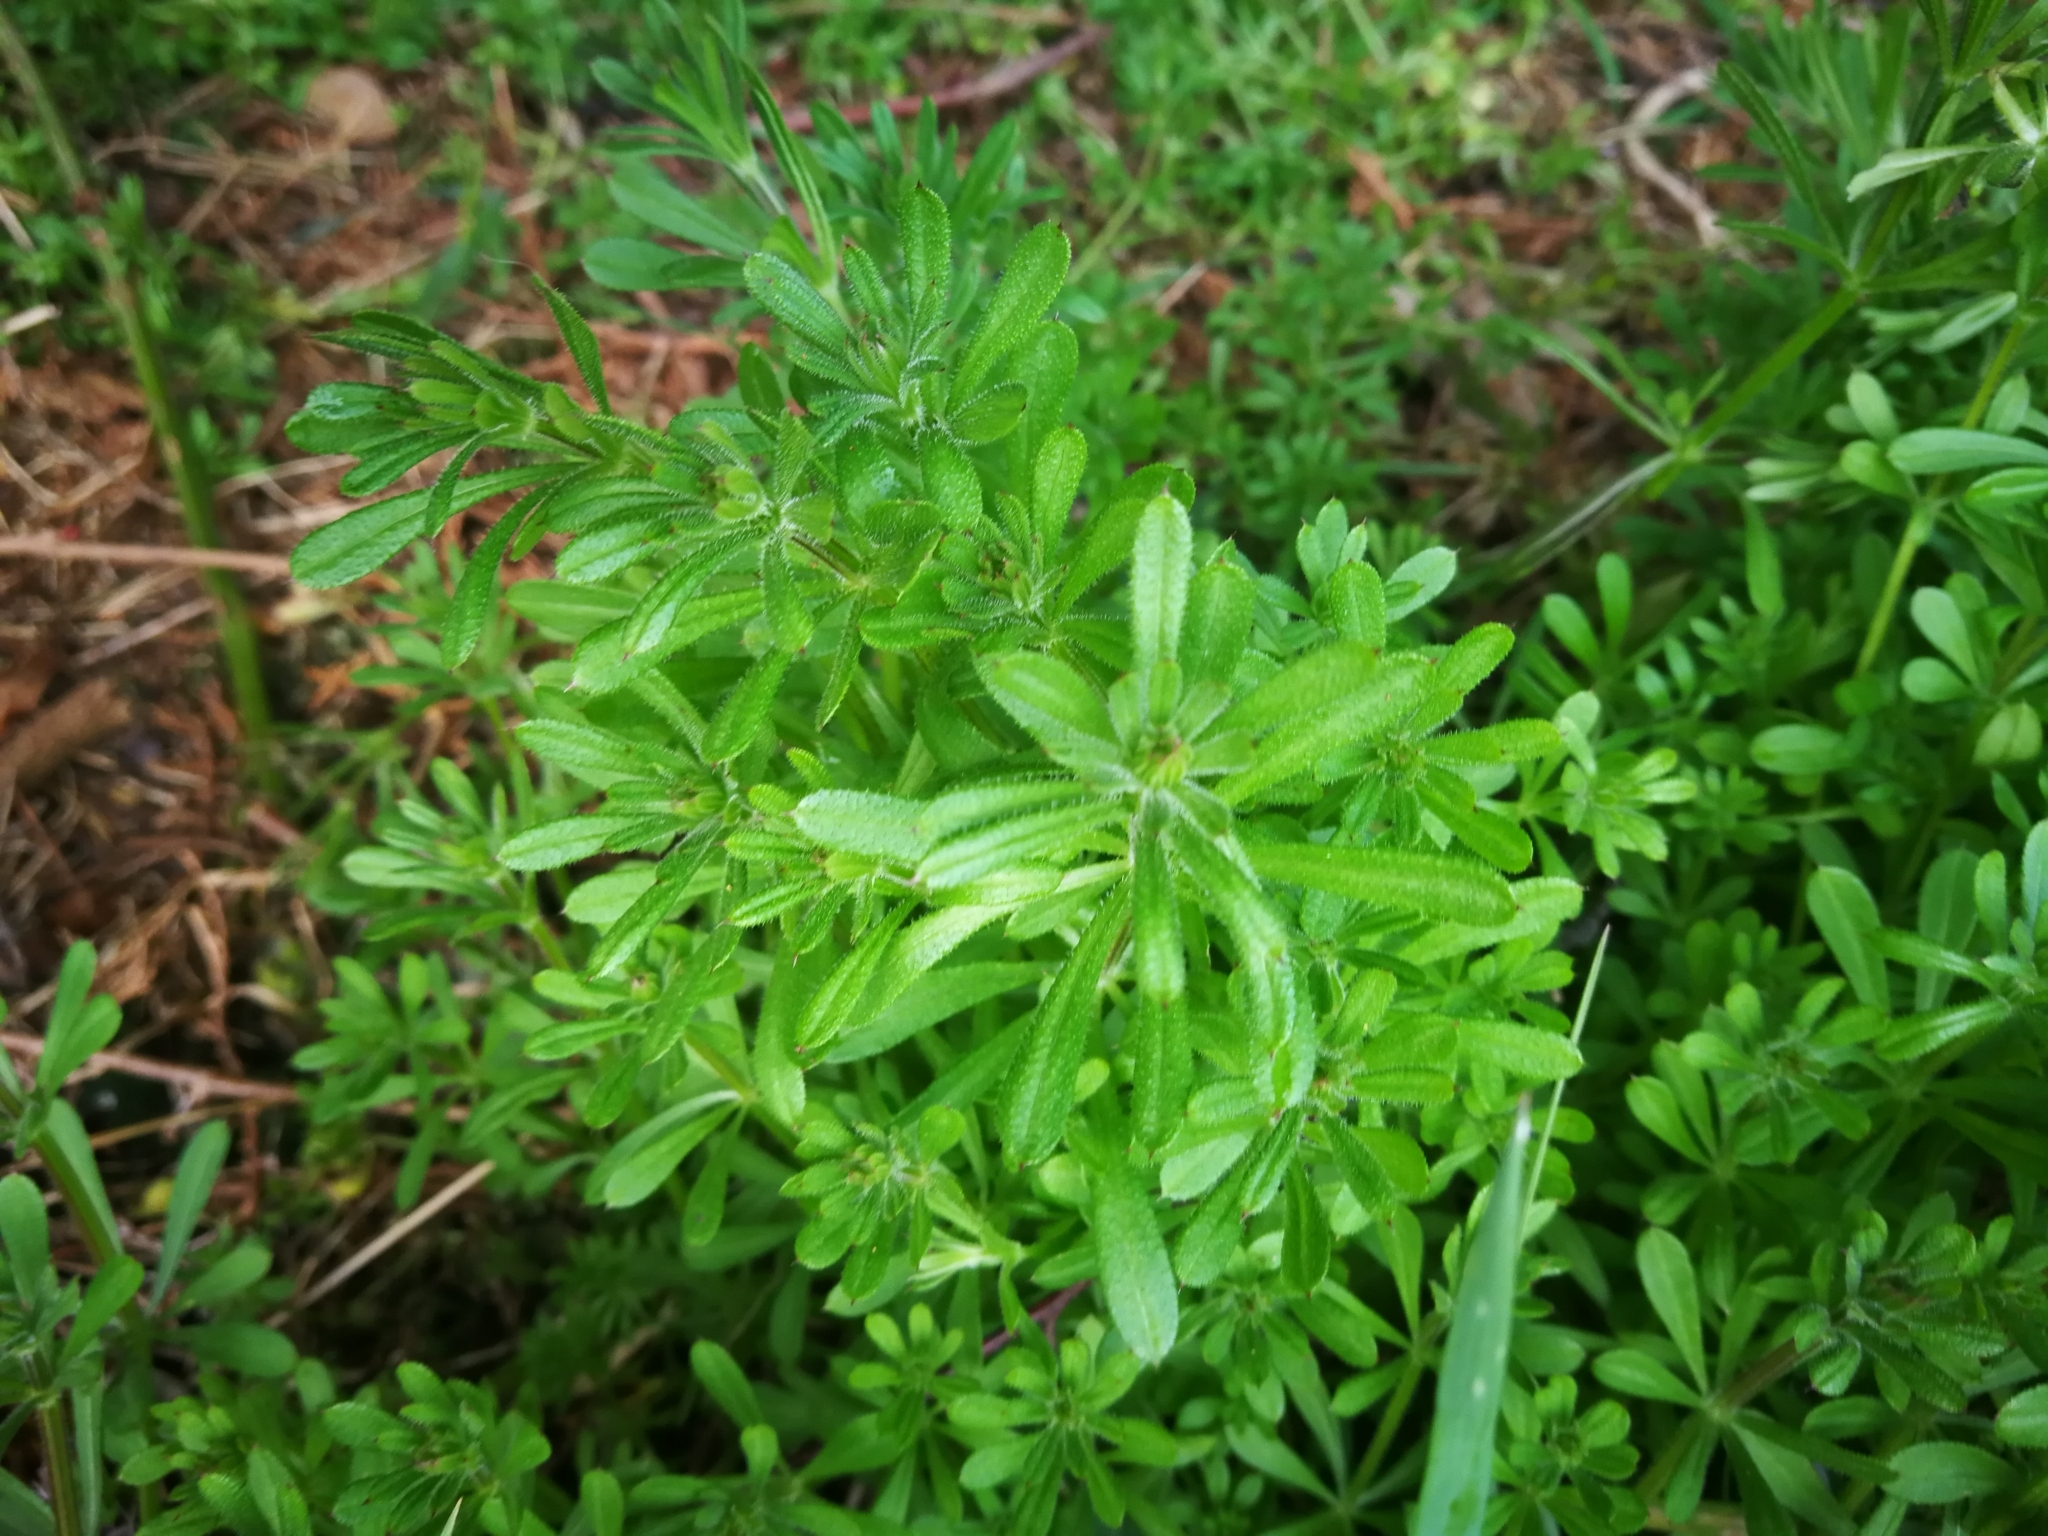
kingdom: Plantae
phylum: Tracheophyta
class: Magnoliopsida
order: Gentianales
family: Rubiaceae
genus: Galium
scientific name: Galium aparine
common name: Cleavers
